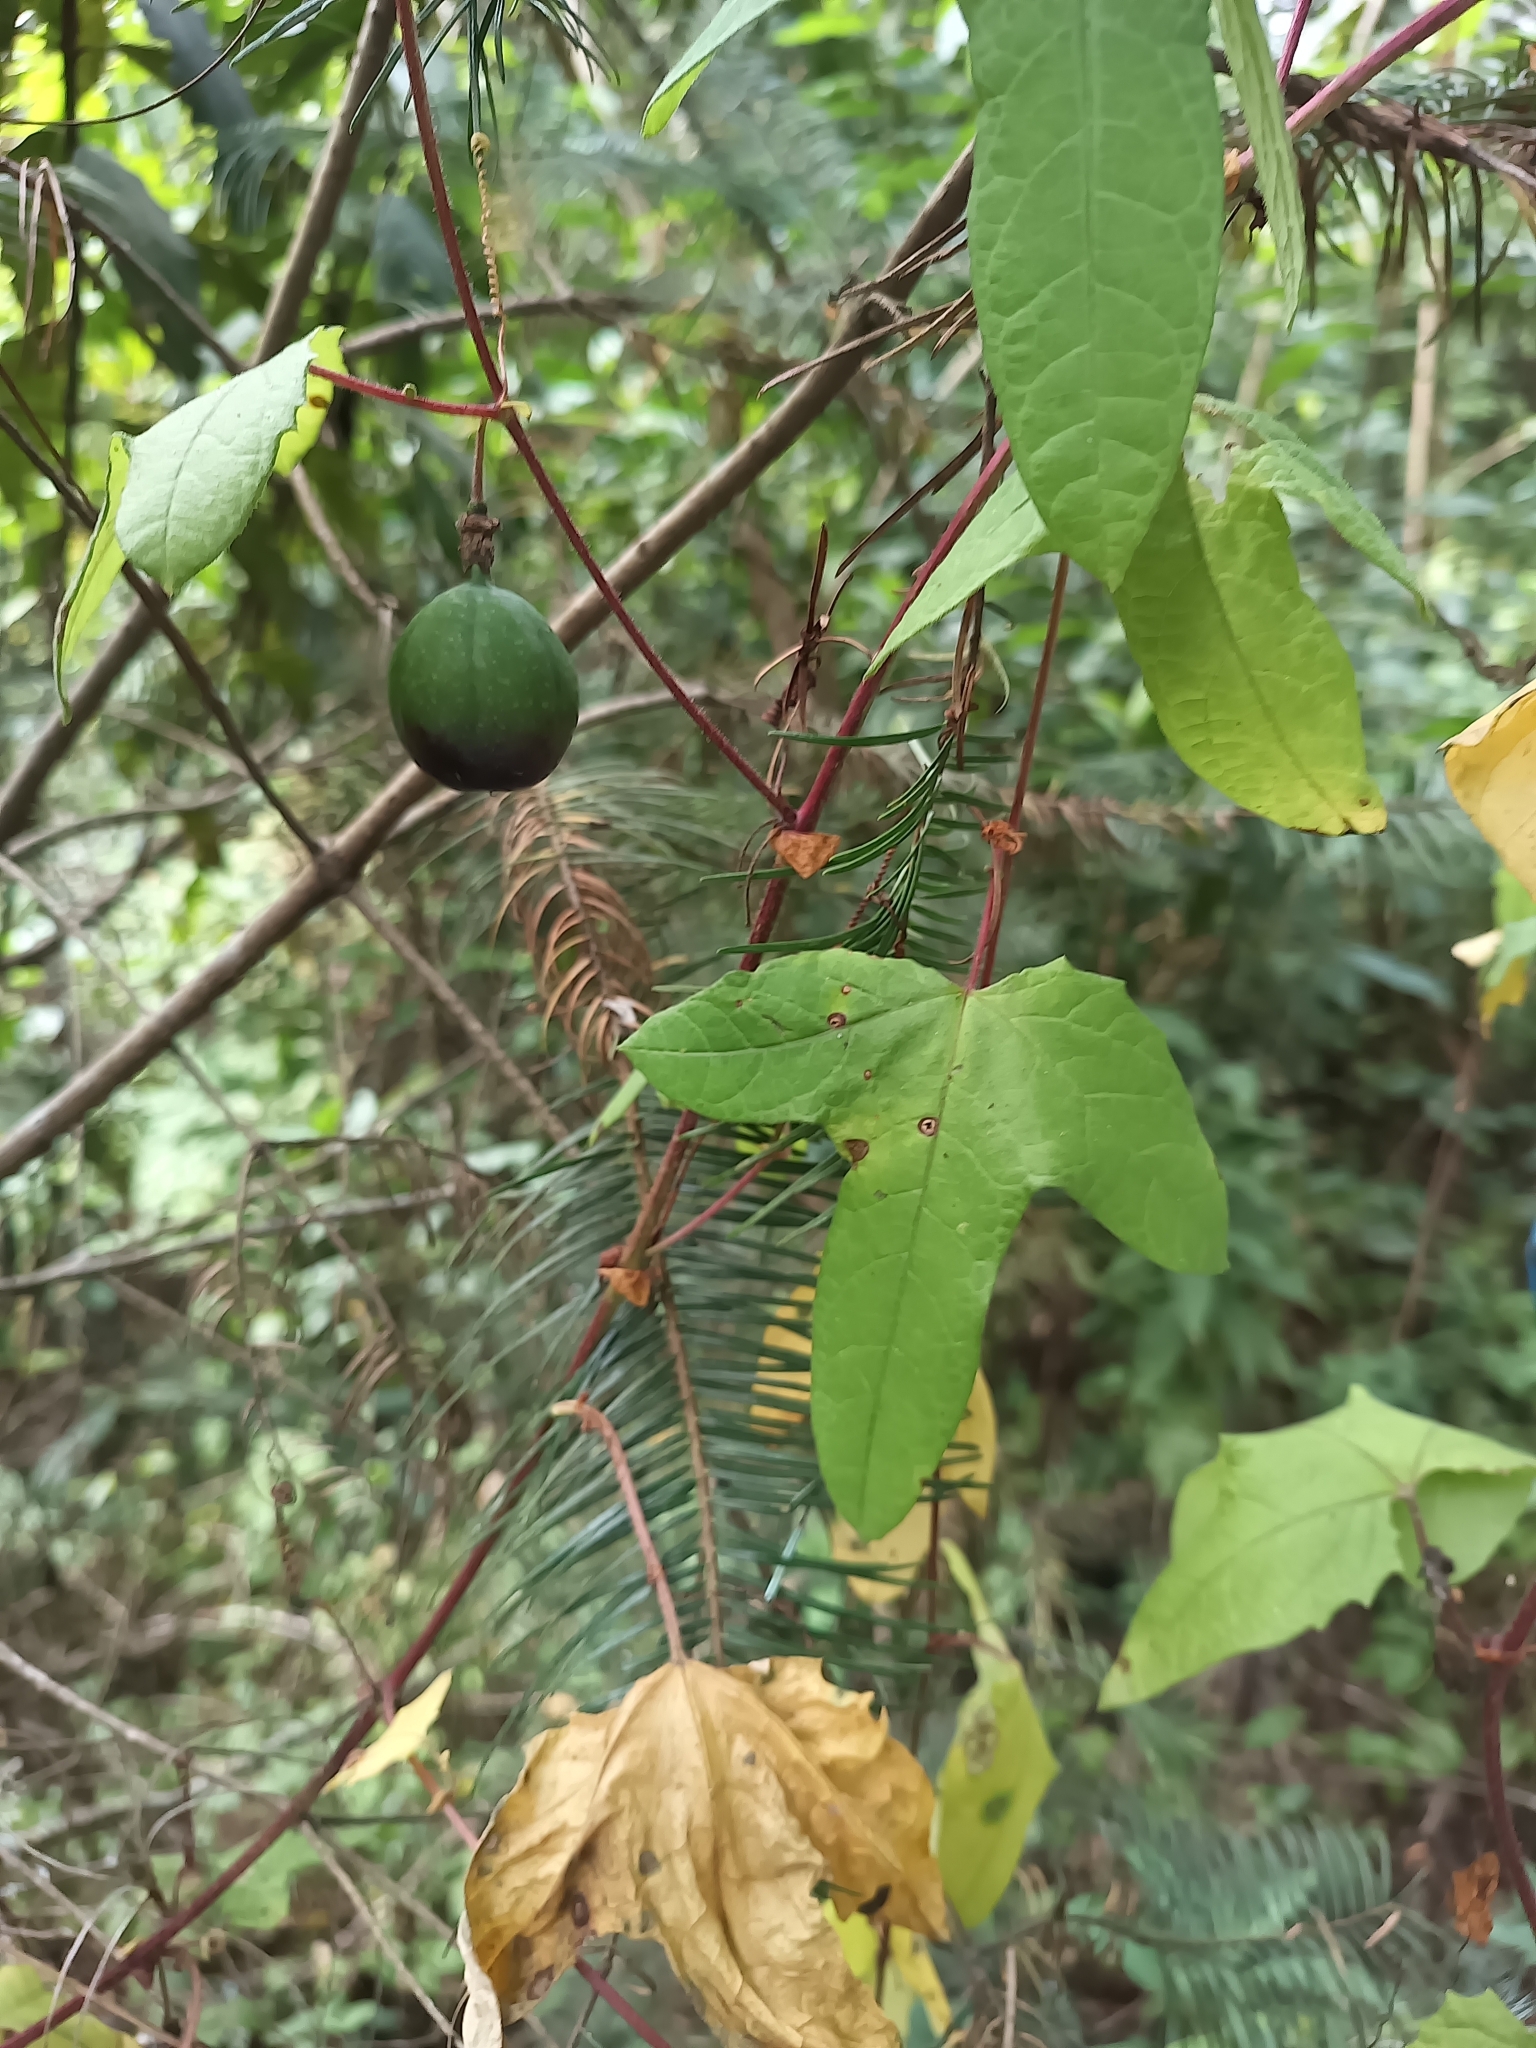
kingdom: Plantae
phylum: Tracheophyta
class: Magnoliopsida
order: Malpighiales
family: Passifloraceae
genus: Passiflora
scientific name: Passiflora exsudans
